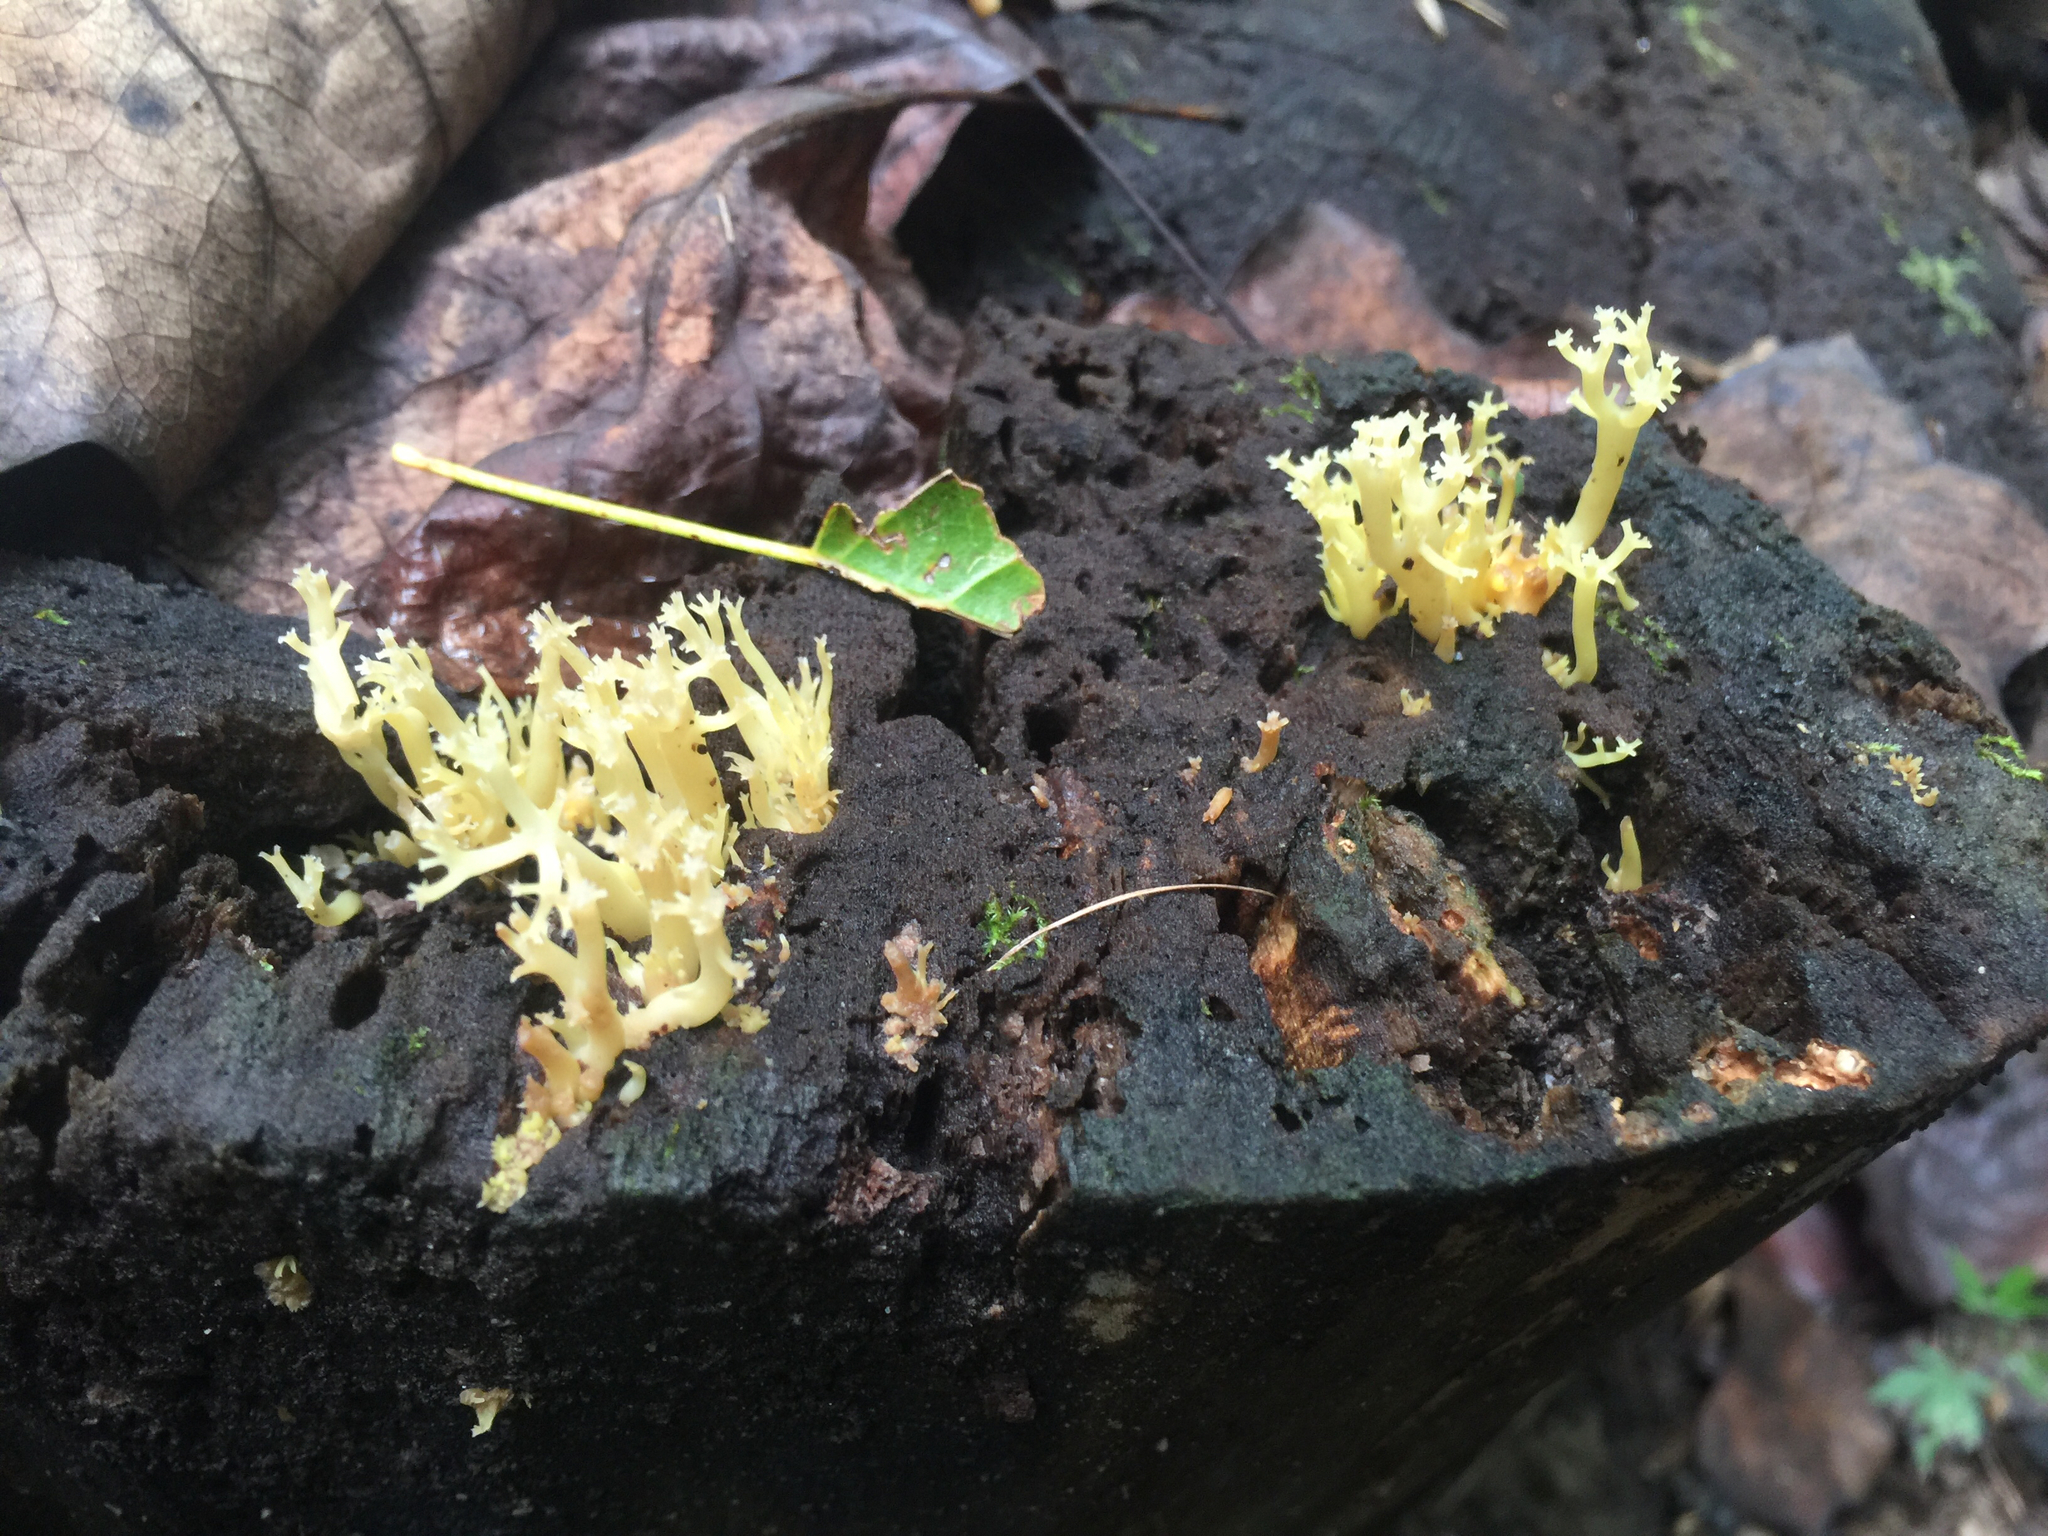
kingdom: Fungi
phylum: Basidiomycota
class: Agaricomycetes
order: Russulales
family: Auriscalpiaceae
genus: Artomyces
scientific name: Artomyces pyxidatus
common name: Crown-tipped coral fungus
